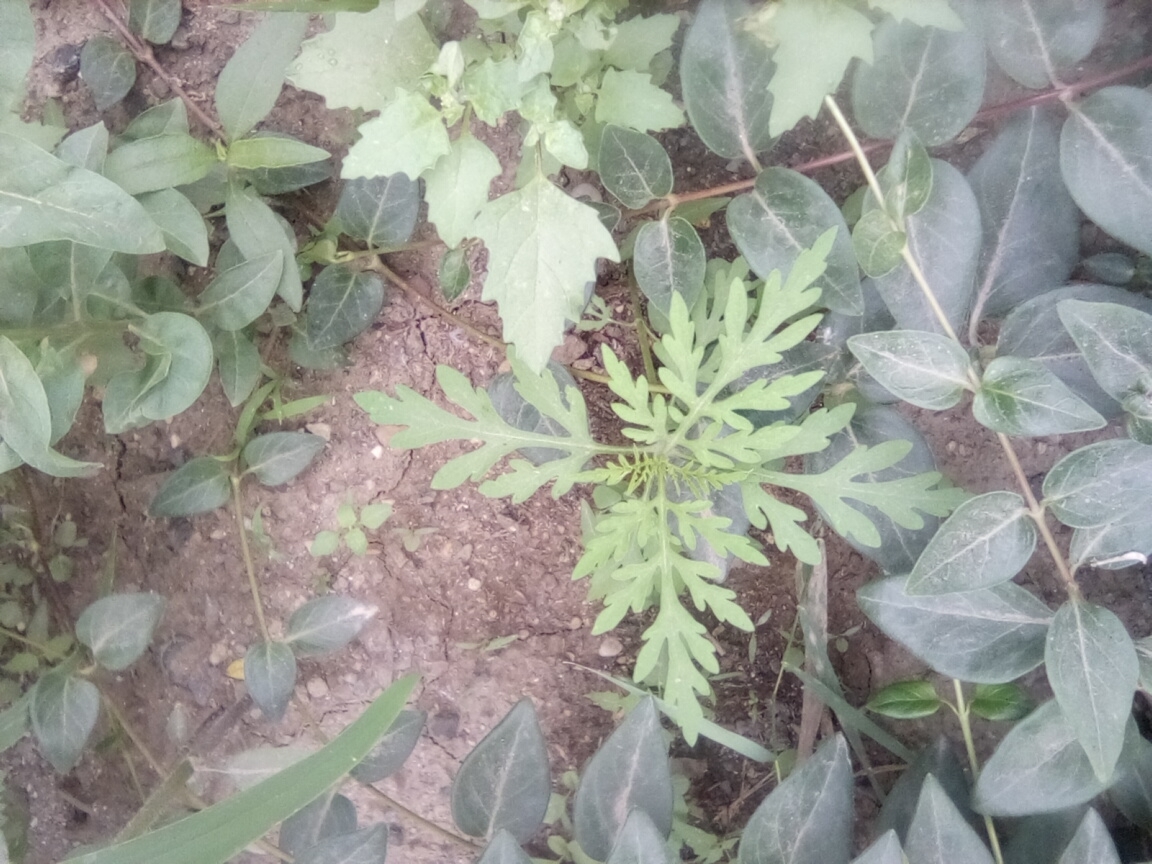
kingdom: Plantae
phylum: Tracheophyta
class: Magnoliopsida
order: Asterales
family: Asteraceae
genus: Ambrosia
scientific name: Ambrosia artemisiifolia
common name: Annual ragweed
